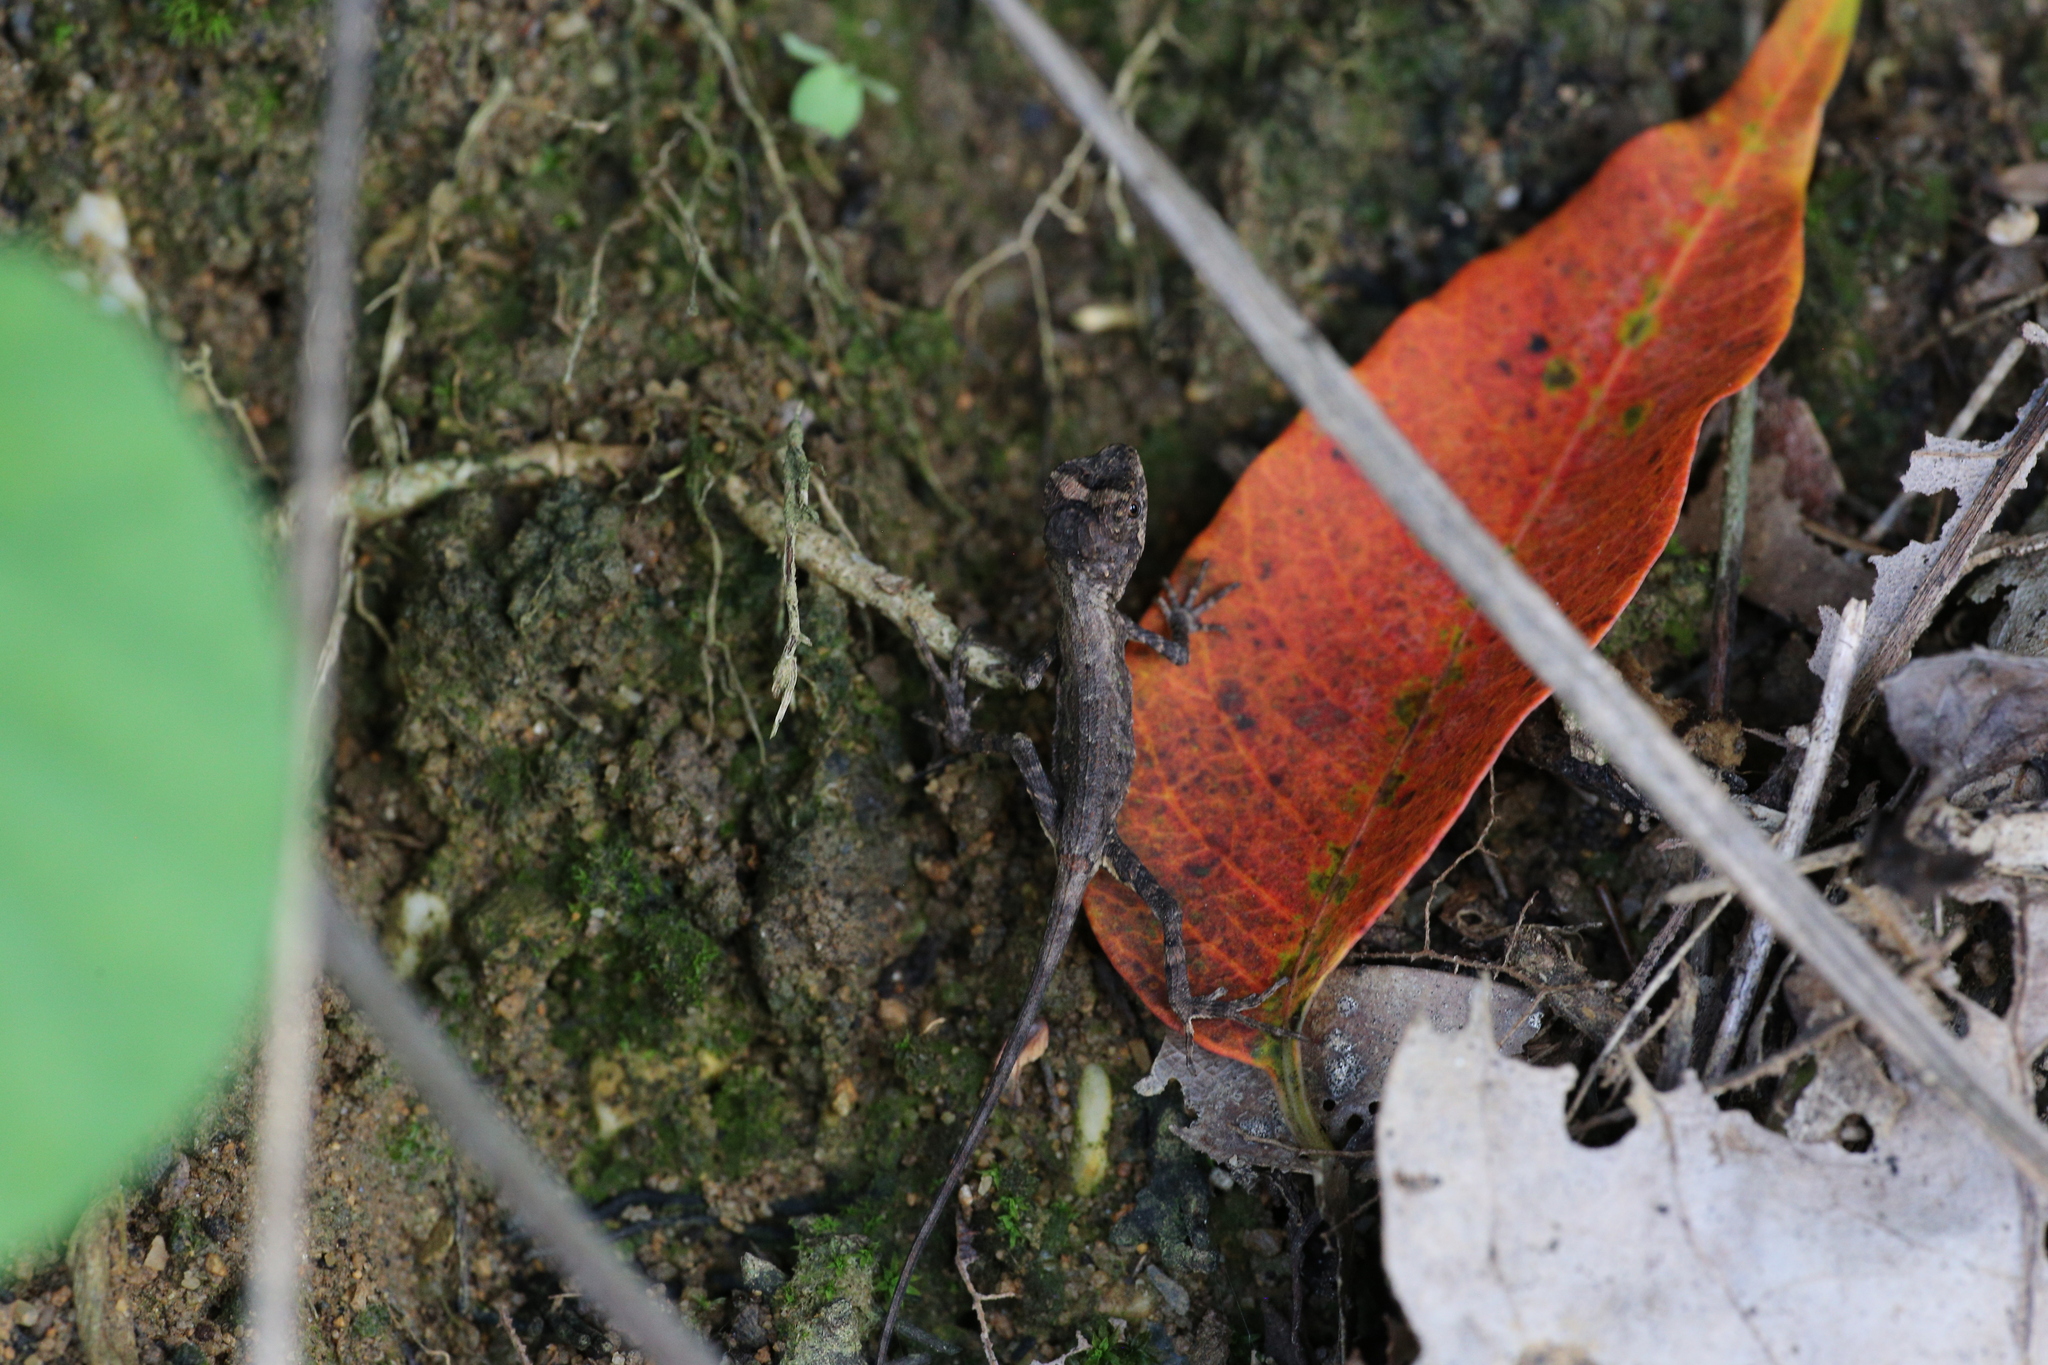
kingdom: Fungi
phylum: Basidiomycota
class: Agaricomycetes
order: Boletales
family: Diplocystidiaceae
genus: Diploderma
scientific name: Diploderma polygonatum
